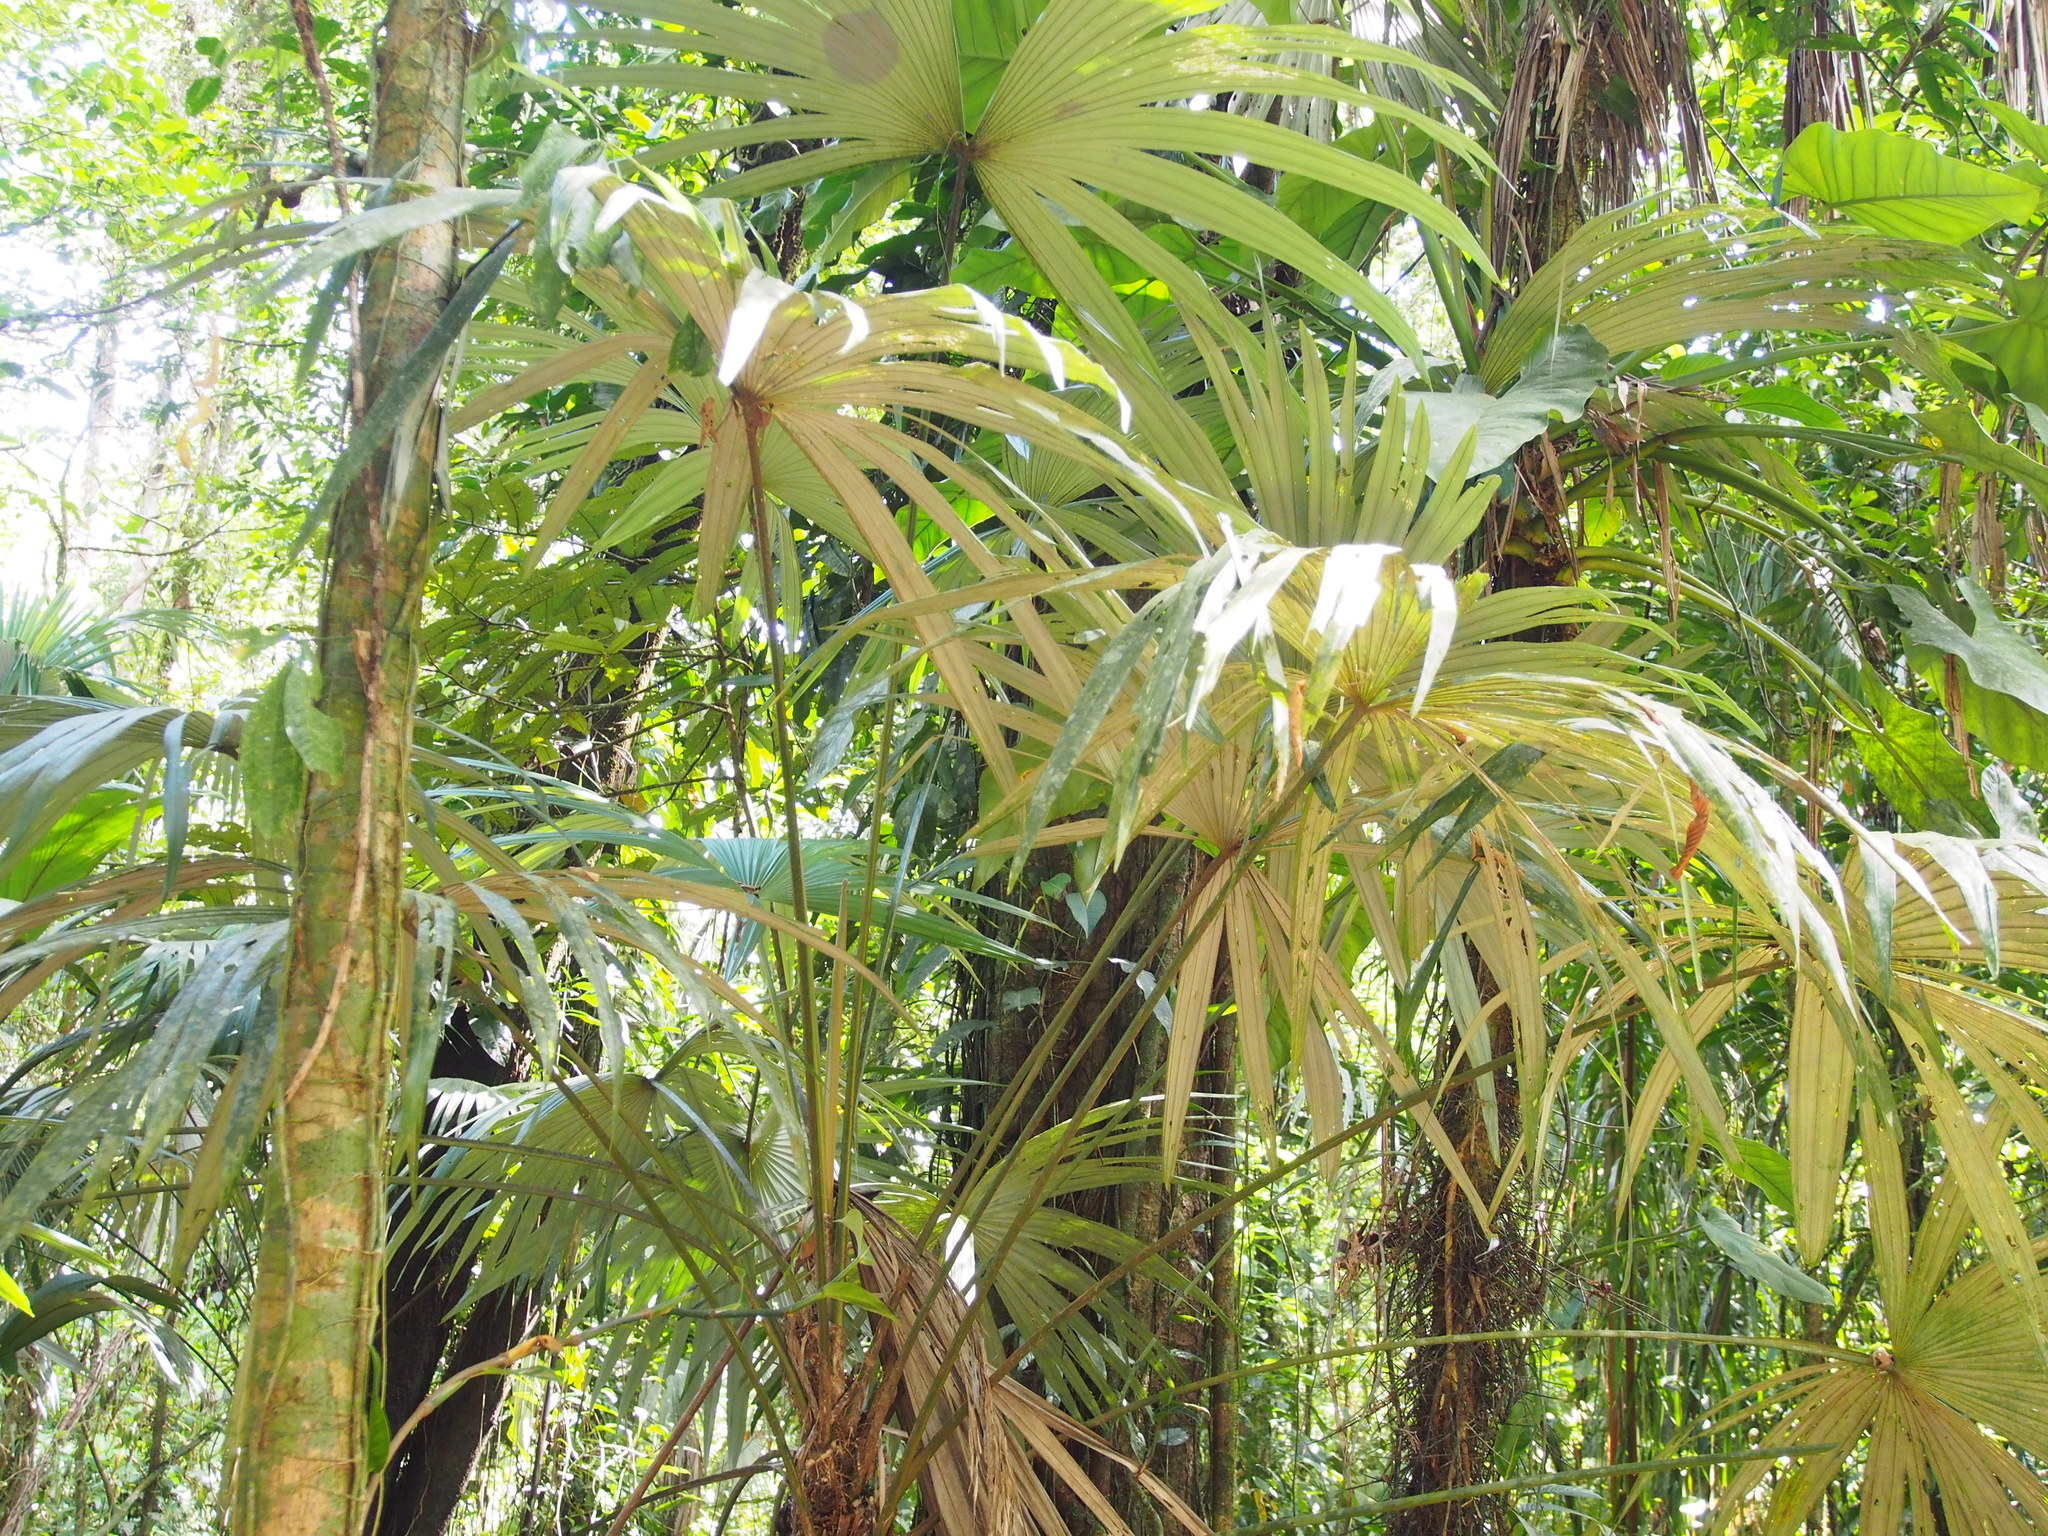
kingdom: Plantae
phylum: Tracheophyta
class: Liliopsida
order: Arecales
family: Arecaceae
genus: Cryosophila
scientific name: Cryosophila warscewiczii
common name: Root-spine palm
